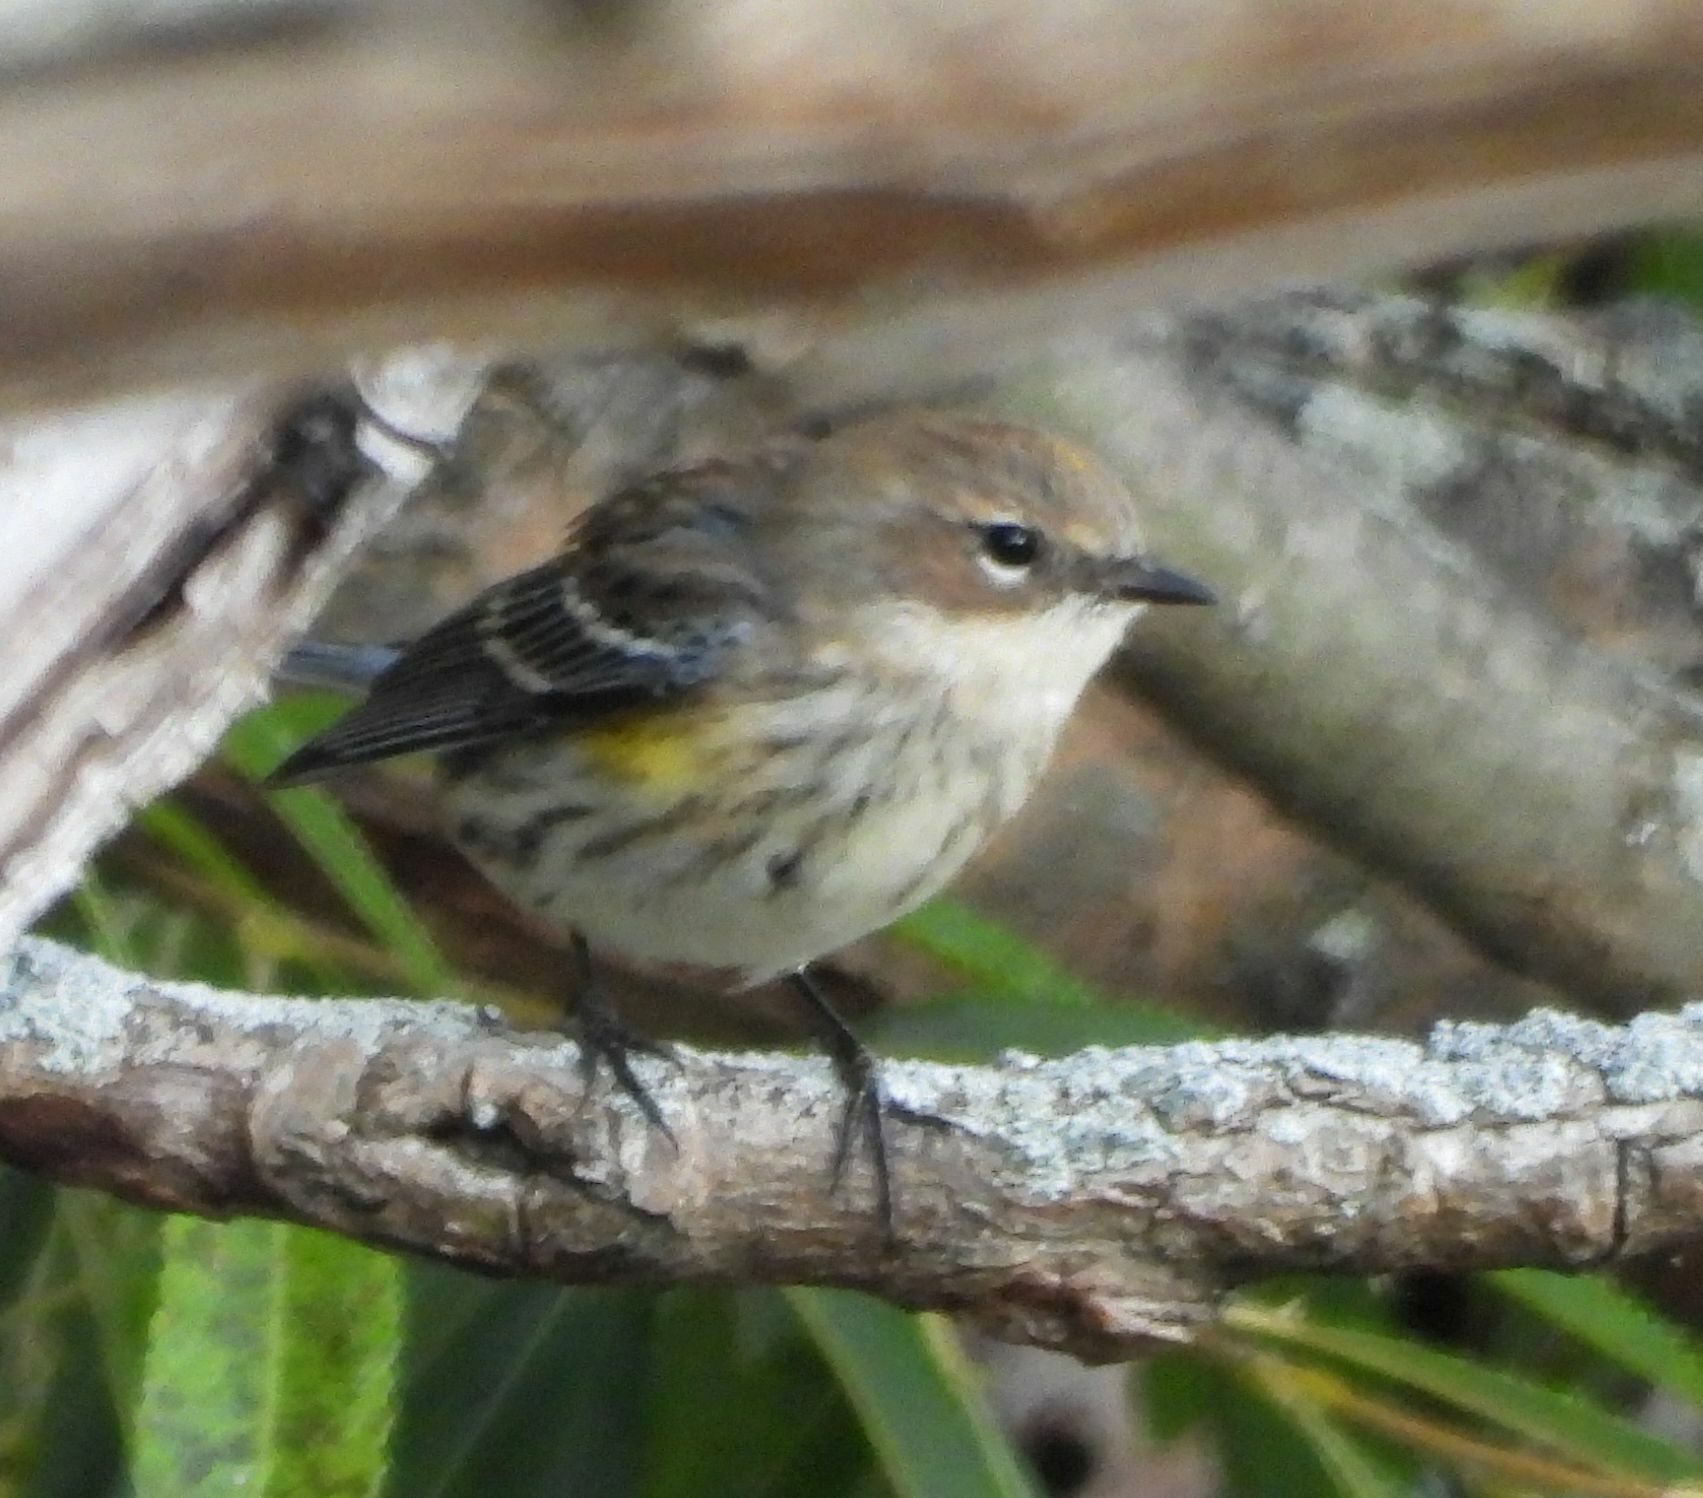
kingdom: Animalia
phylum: Chordata
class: Aves
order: Passeriformes
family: Parulidae
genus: Setophaga
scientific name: Setophaga coronata
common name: Myrtle warbler
